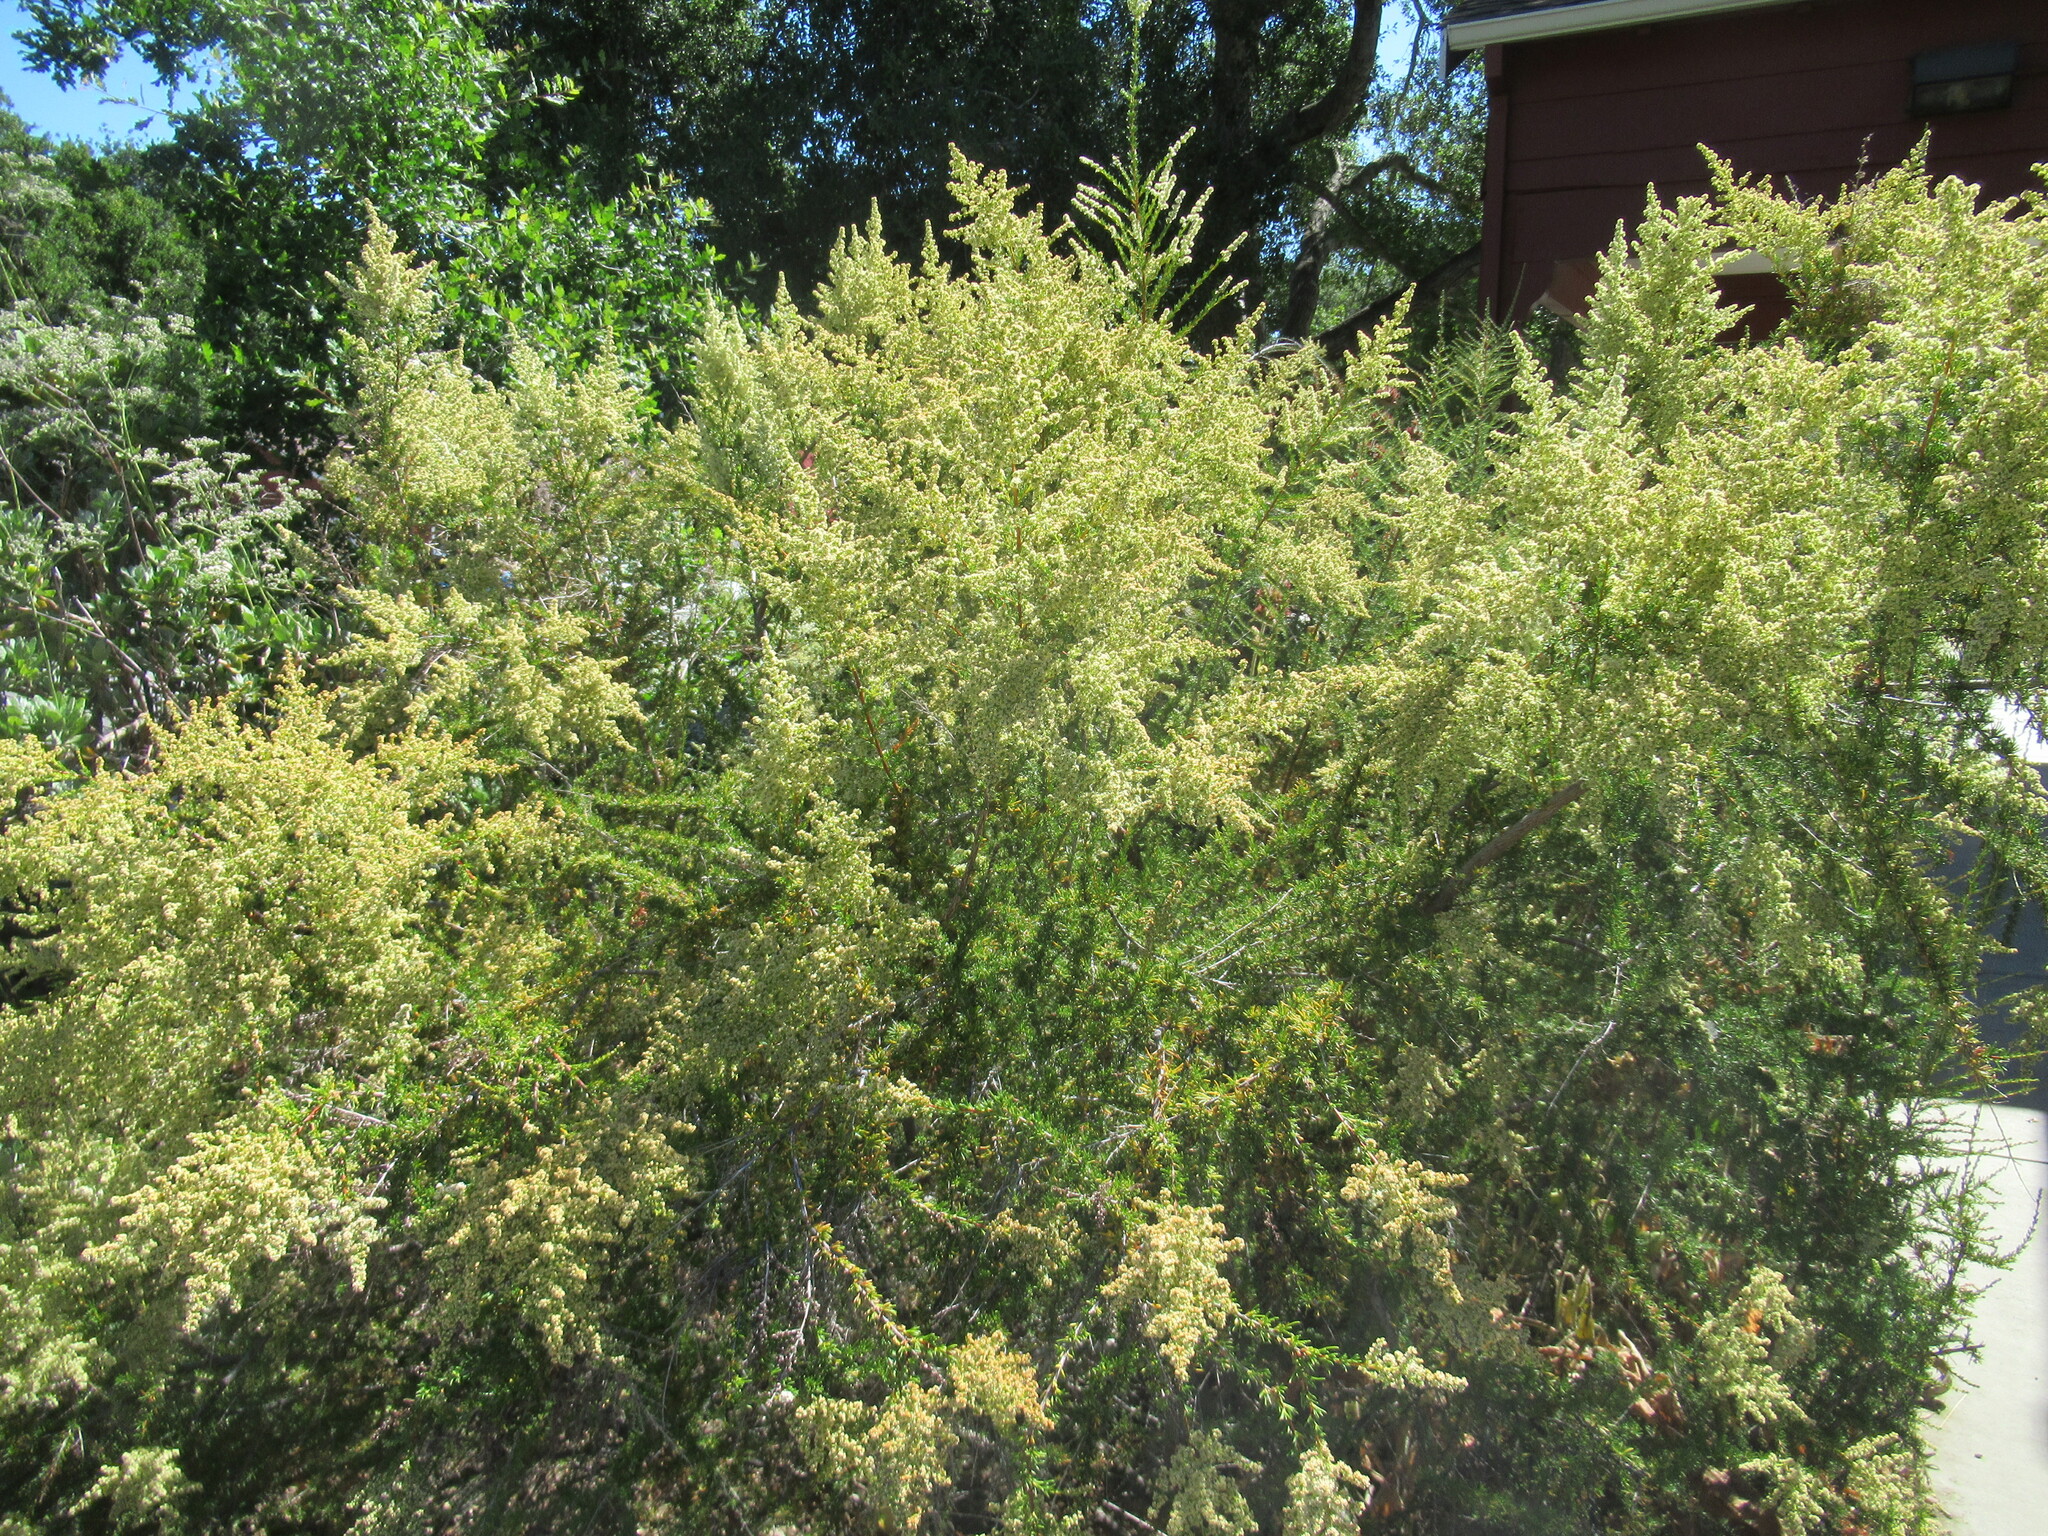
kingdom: Plantae
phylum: Tracheophyta
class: Magnoliopsida
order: Rosales
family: Rosaceae
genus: Adenostoma
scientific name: Adenostoma fasciculatum
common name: Chamise
